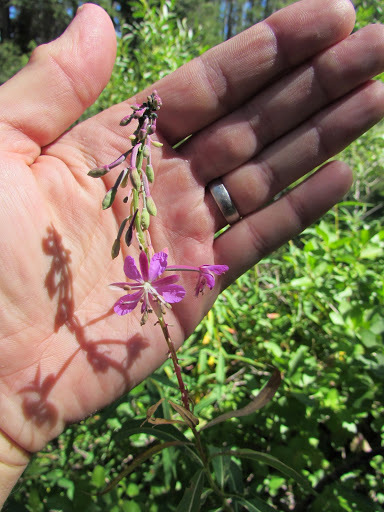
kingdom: Plantae
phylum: Tracheophyta
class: Magnoliopsida
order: Myrtales
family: Onagraceae
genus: Chamaenerion
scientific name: Chamaenerion angustifolium
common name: Fireweed
